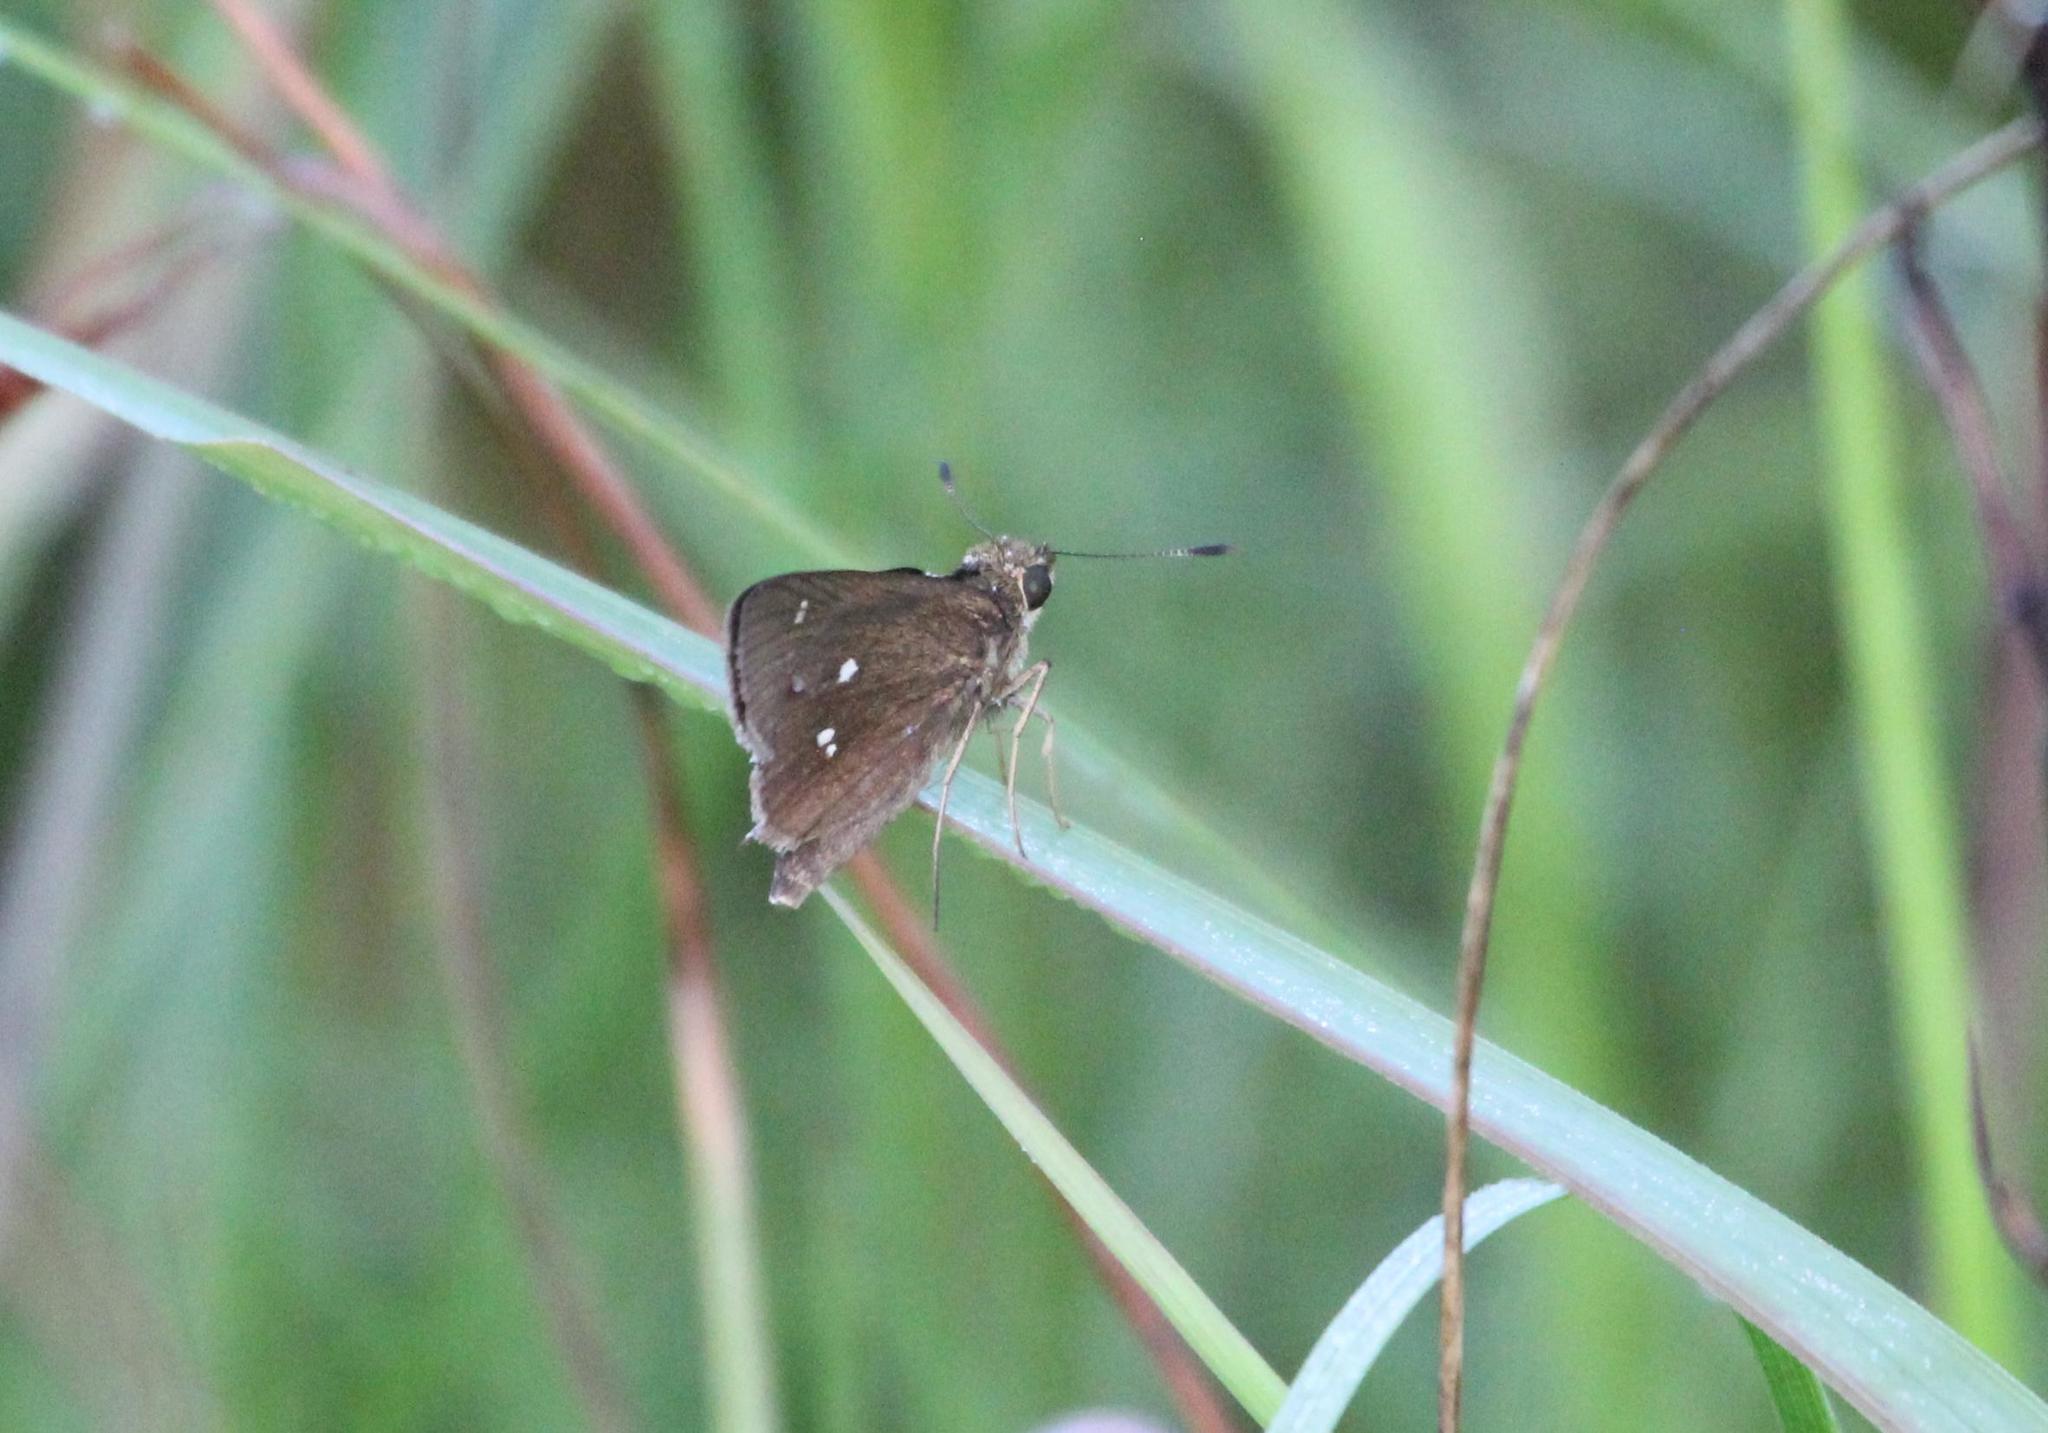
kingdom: Animalia
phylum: Arthropoda
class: Insecta
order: Lepidoptera
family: Hesperiidae
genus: Oligoria
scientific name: Oligoria maculata
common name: Twin-spot skipper
